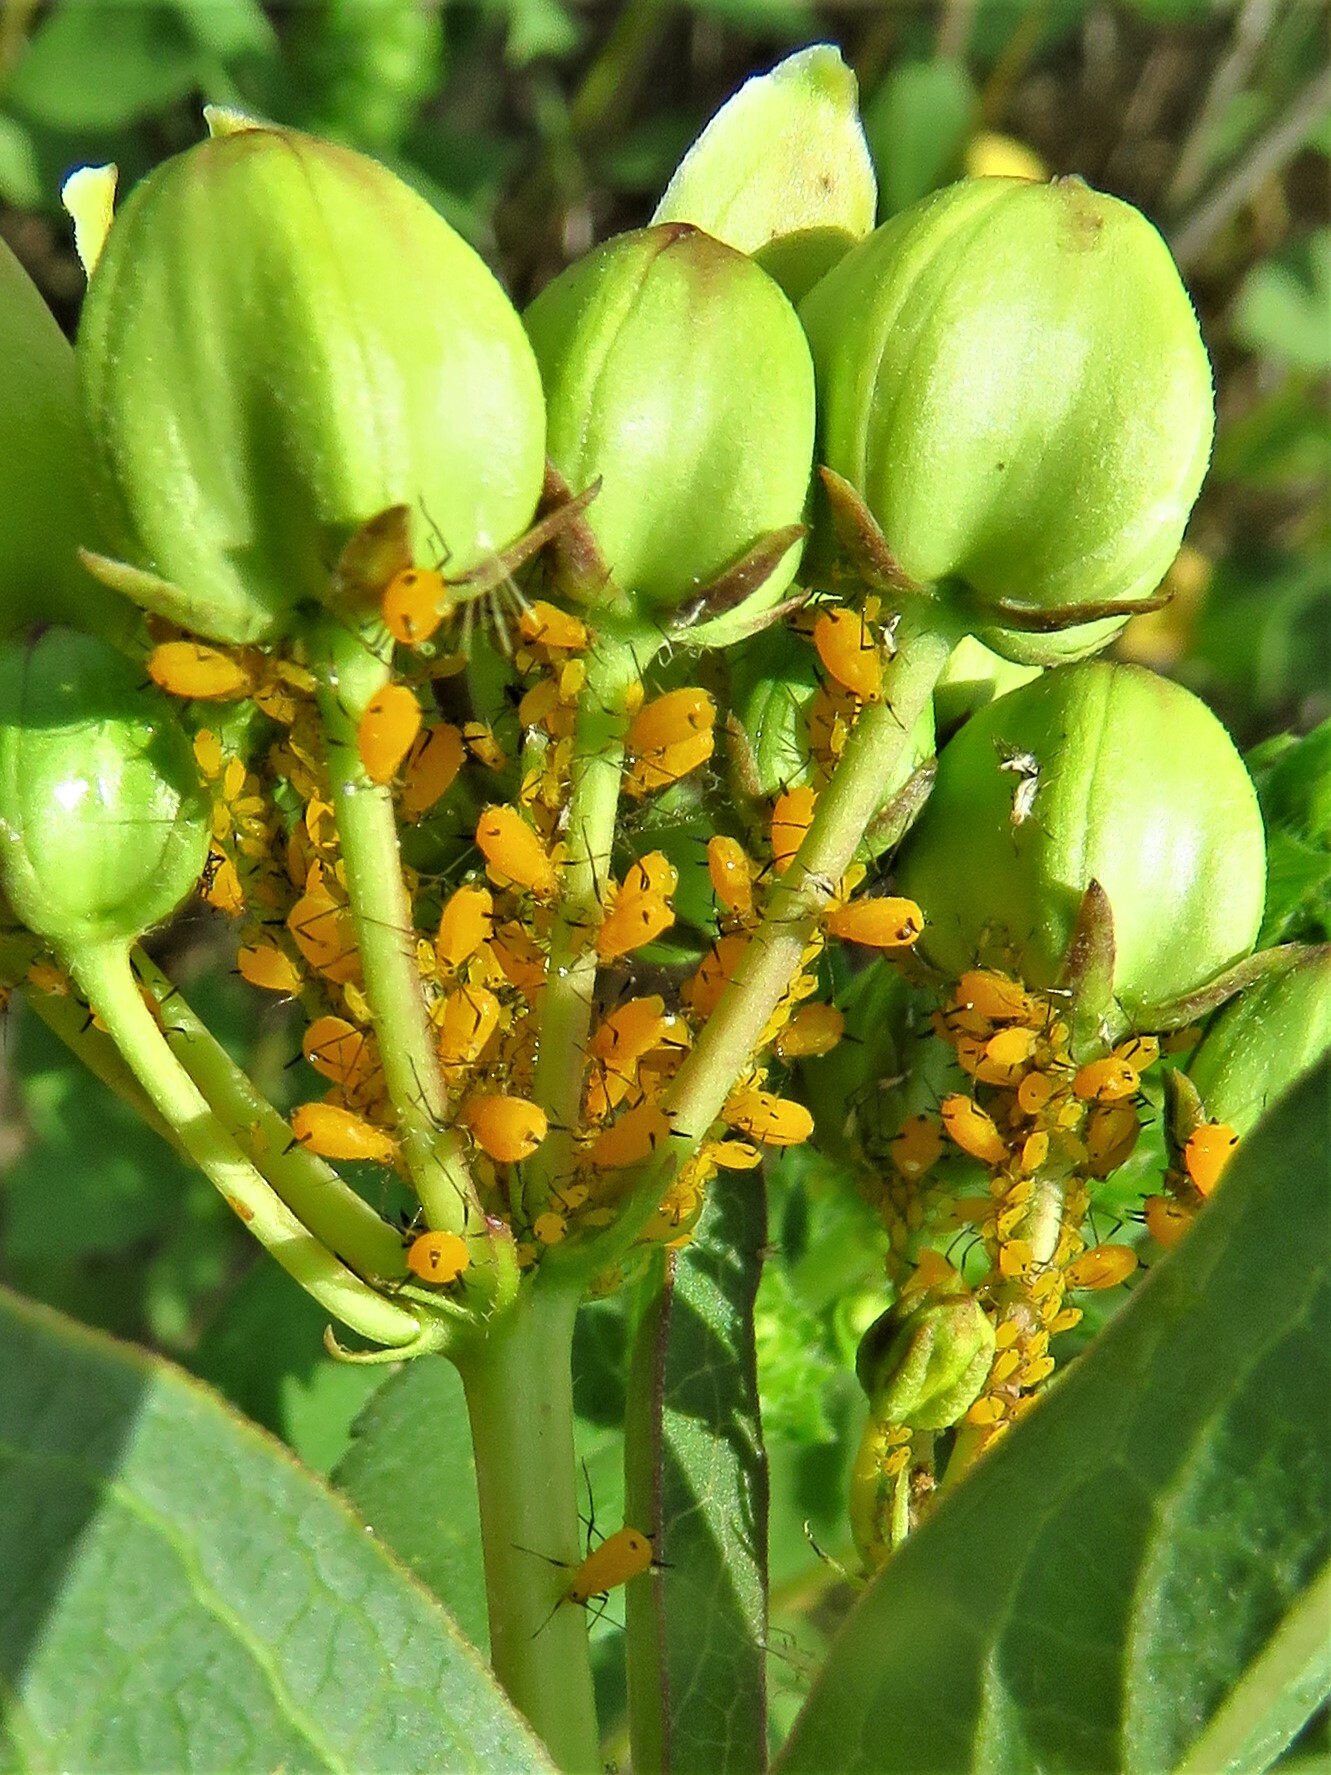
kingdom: Animalia
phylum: Arthropoda
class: Insecta
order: Hemiptera
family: Aphididae
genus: Aphis
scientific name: Aphis nerii
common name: Oleander aphid
